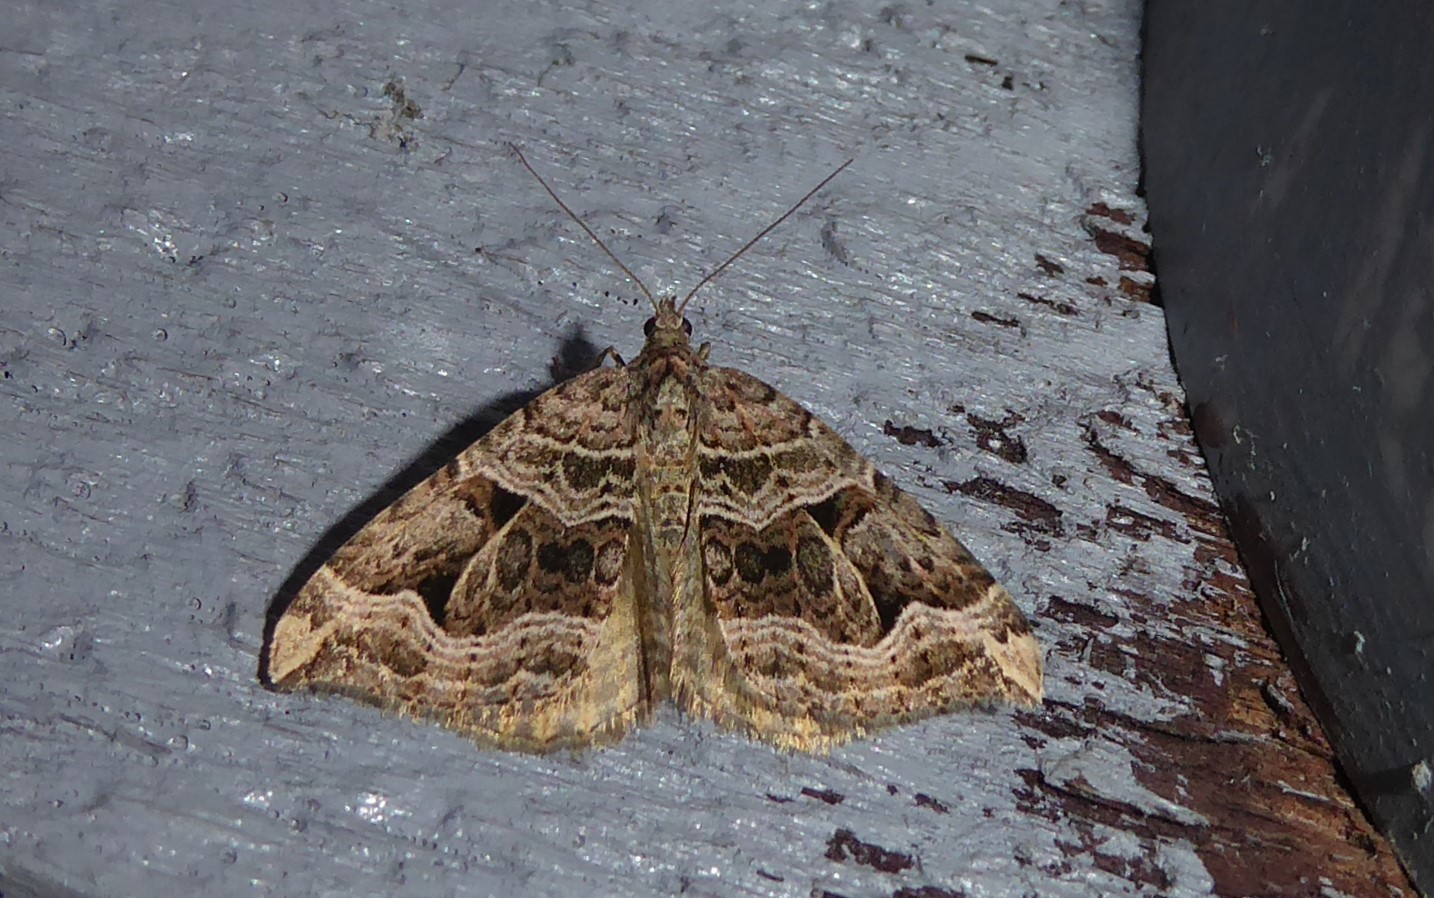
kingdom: Animalia
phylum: Arthropoda
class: Insecta
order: Lepidoptera
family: Geometridae
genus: Xanthorhoe
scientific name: Xanthorhoe semifissata
